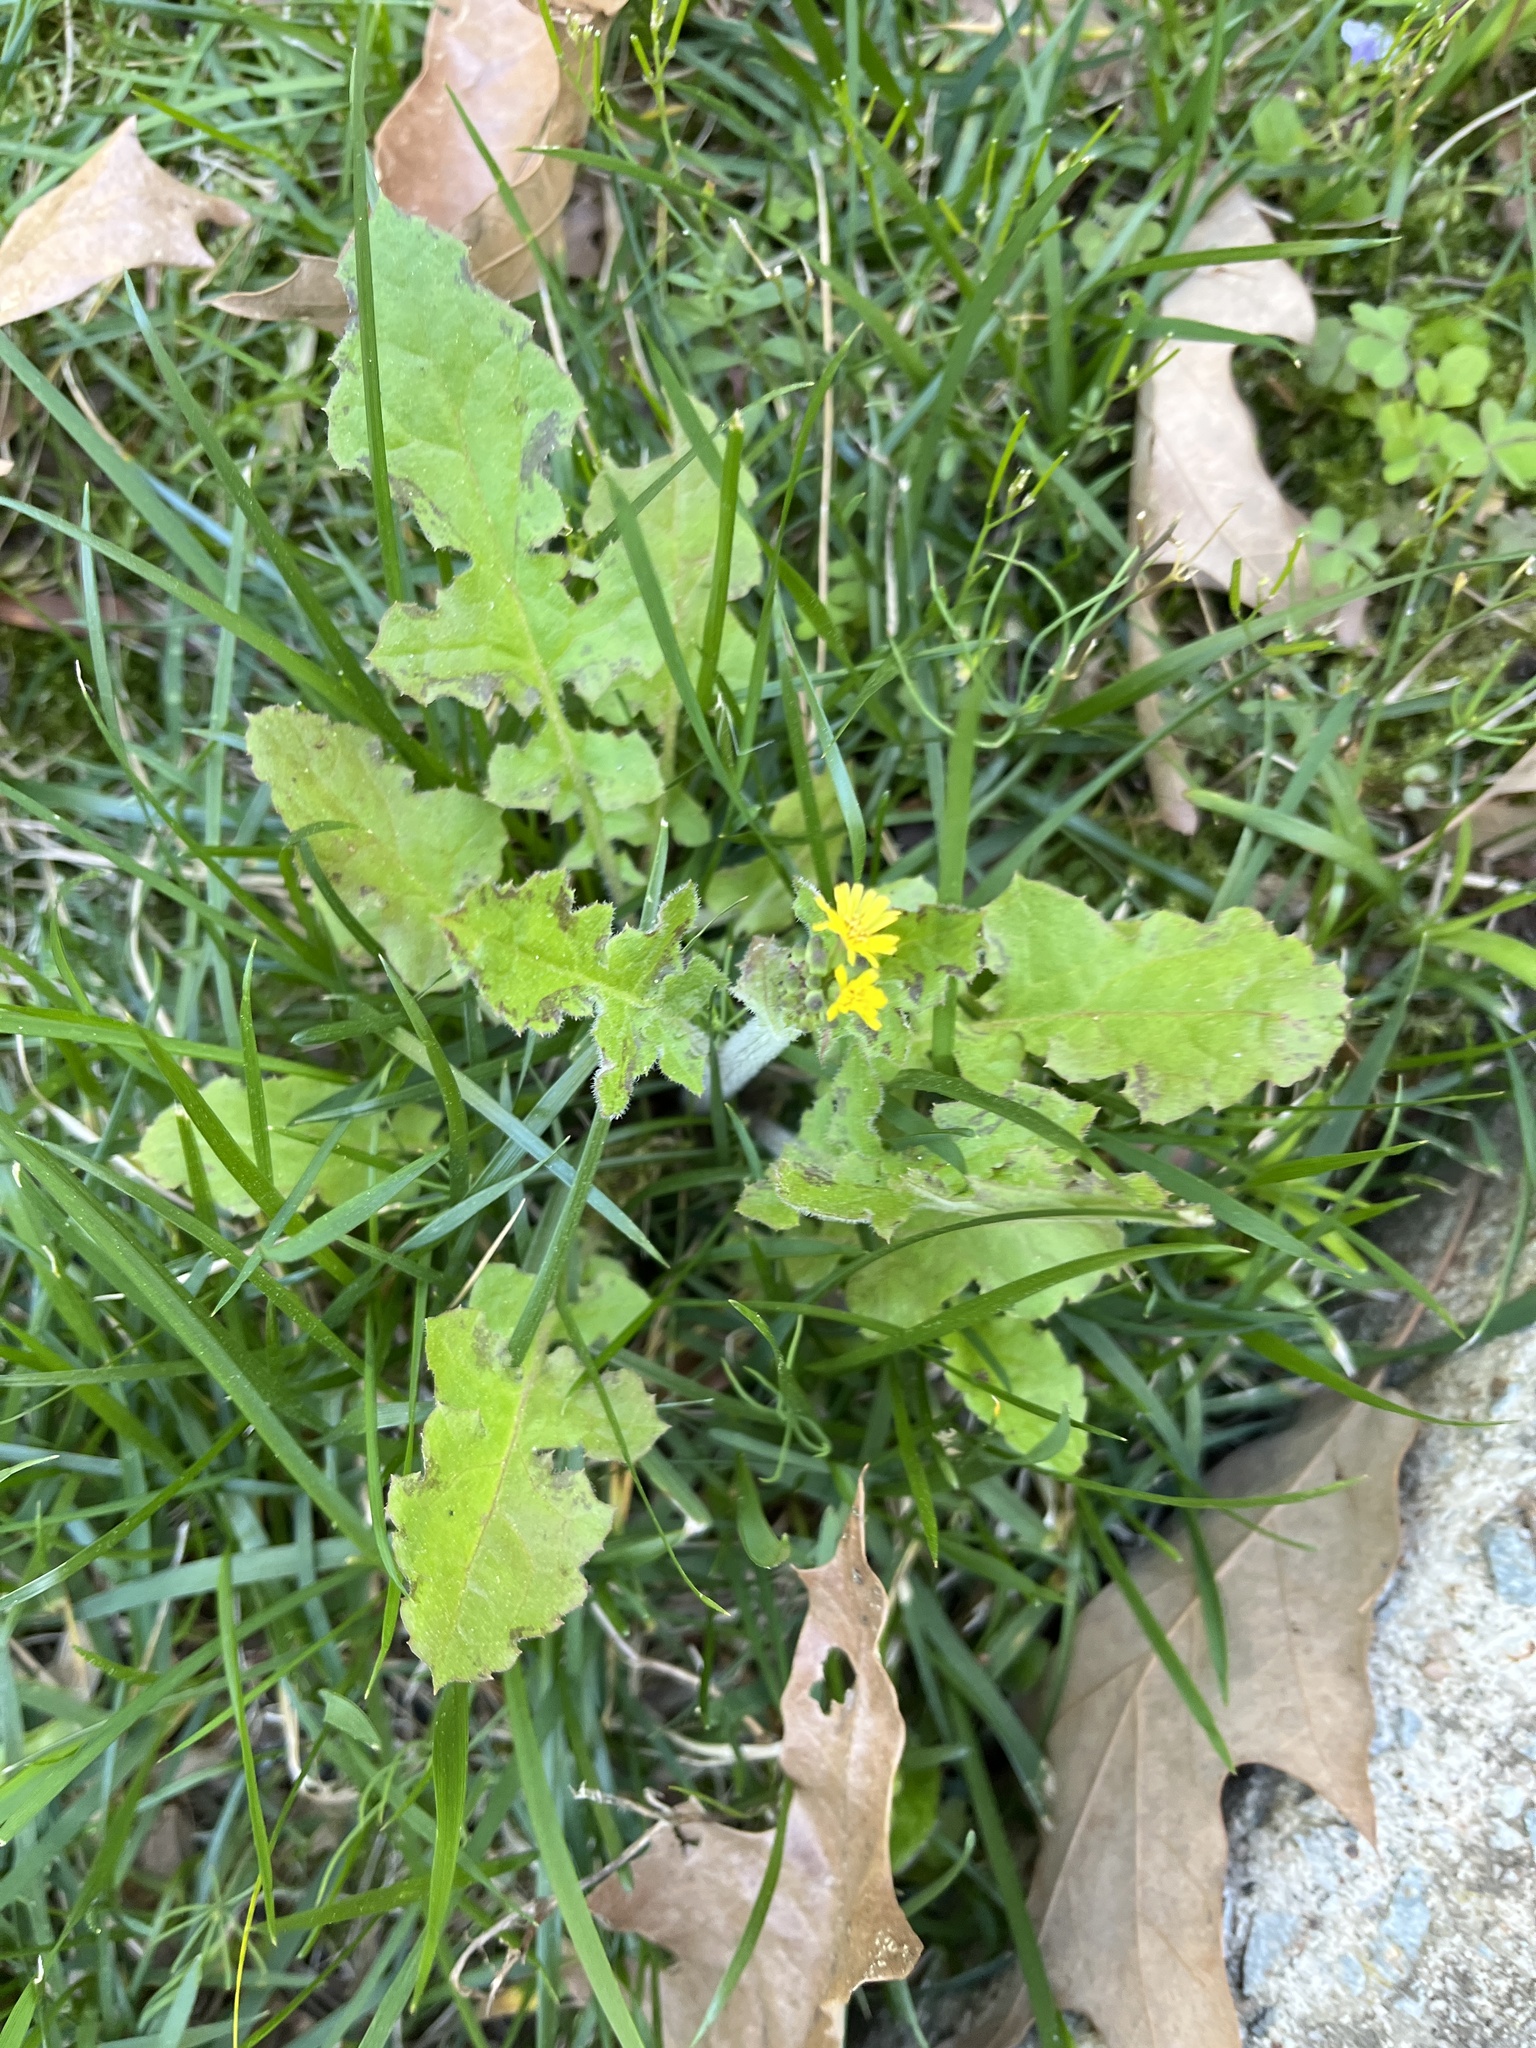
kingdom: Plantae
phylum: Tracheophyta
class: Magnoliopsida
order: Asterales
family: Asteraceae
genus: Youngia
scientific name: Youngia japonica
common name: Oriental false hawksbeard
